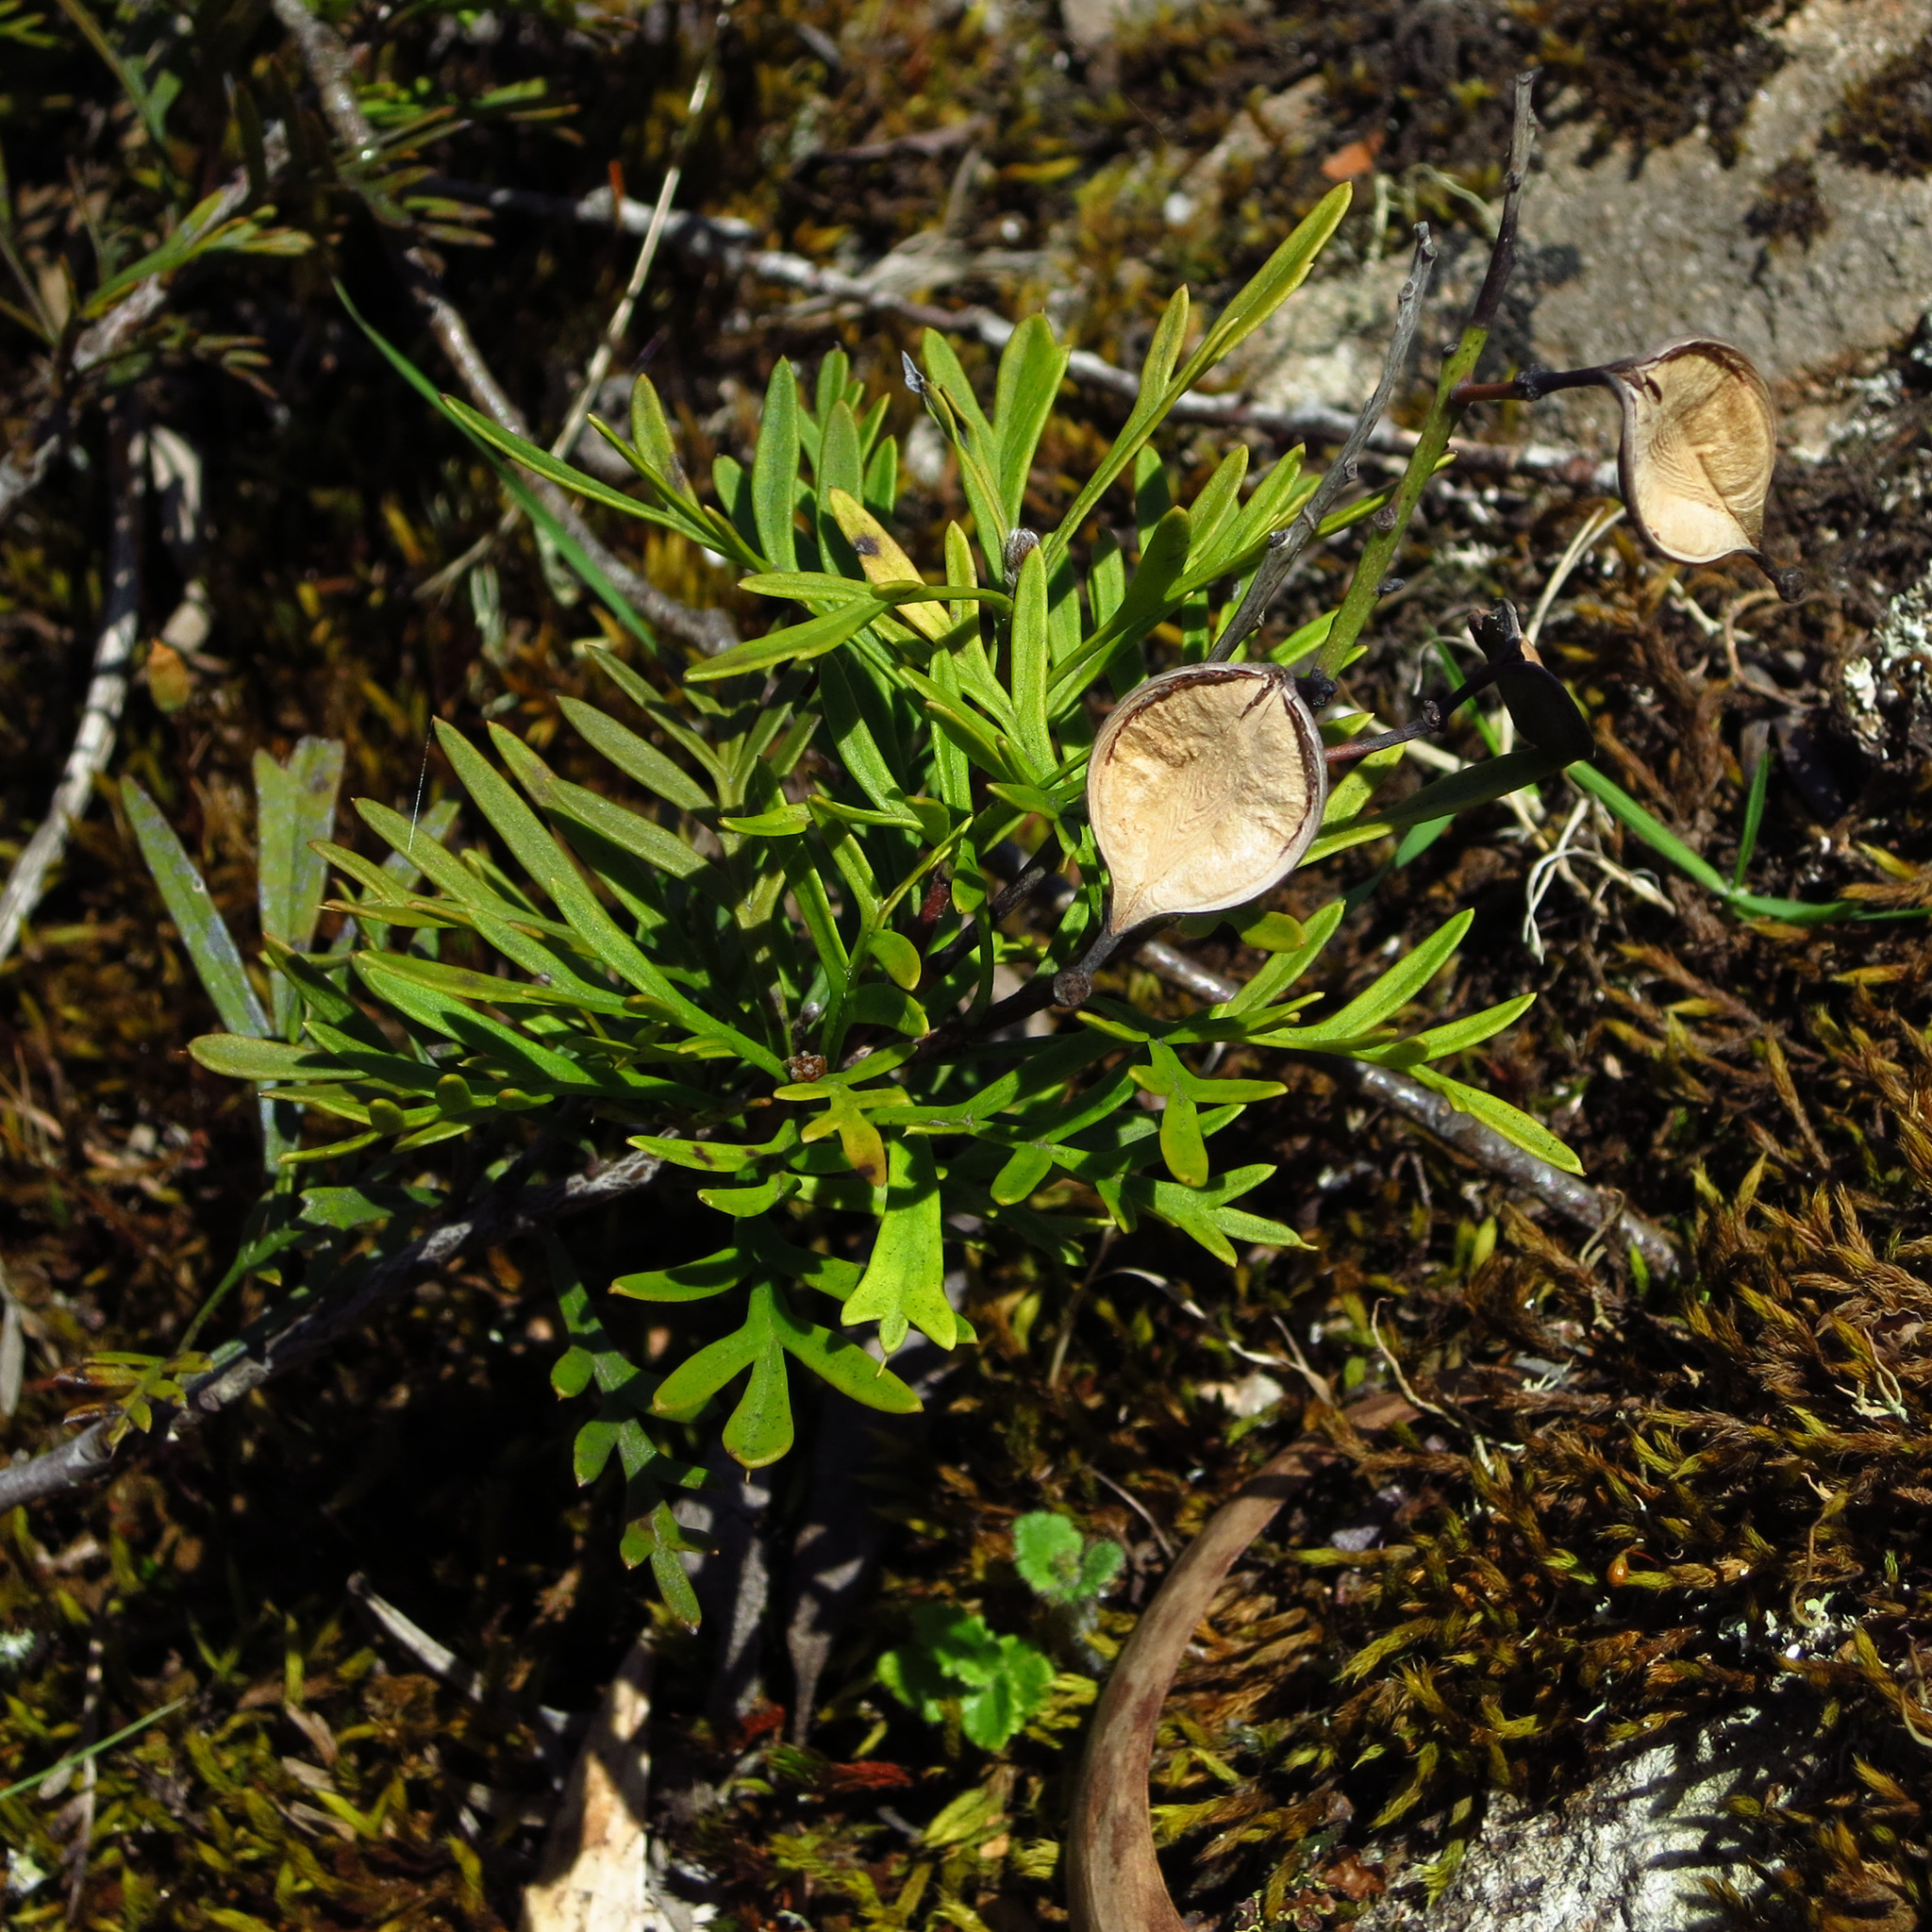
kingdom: Plantae
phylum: Tracheophyta
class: Magnoliopsida
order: Proteales
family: Proteaceae
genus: Lomatia
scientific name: Lomatia tinctoria
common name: Guitar plant
